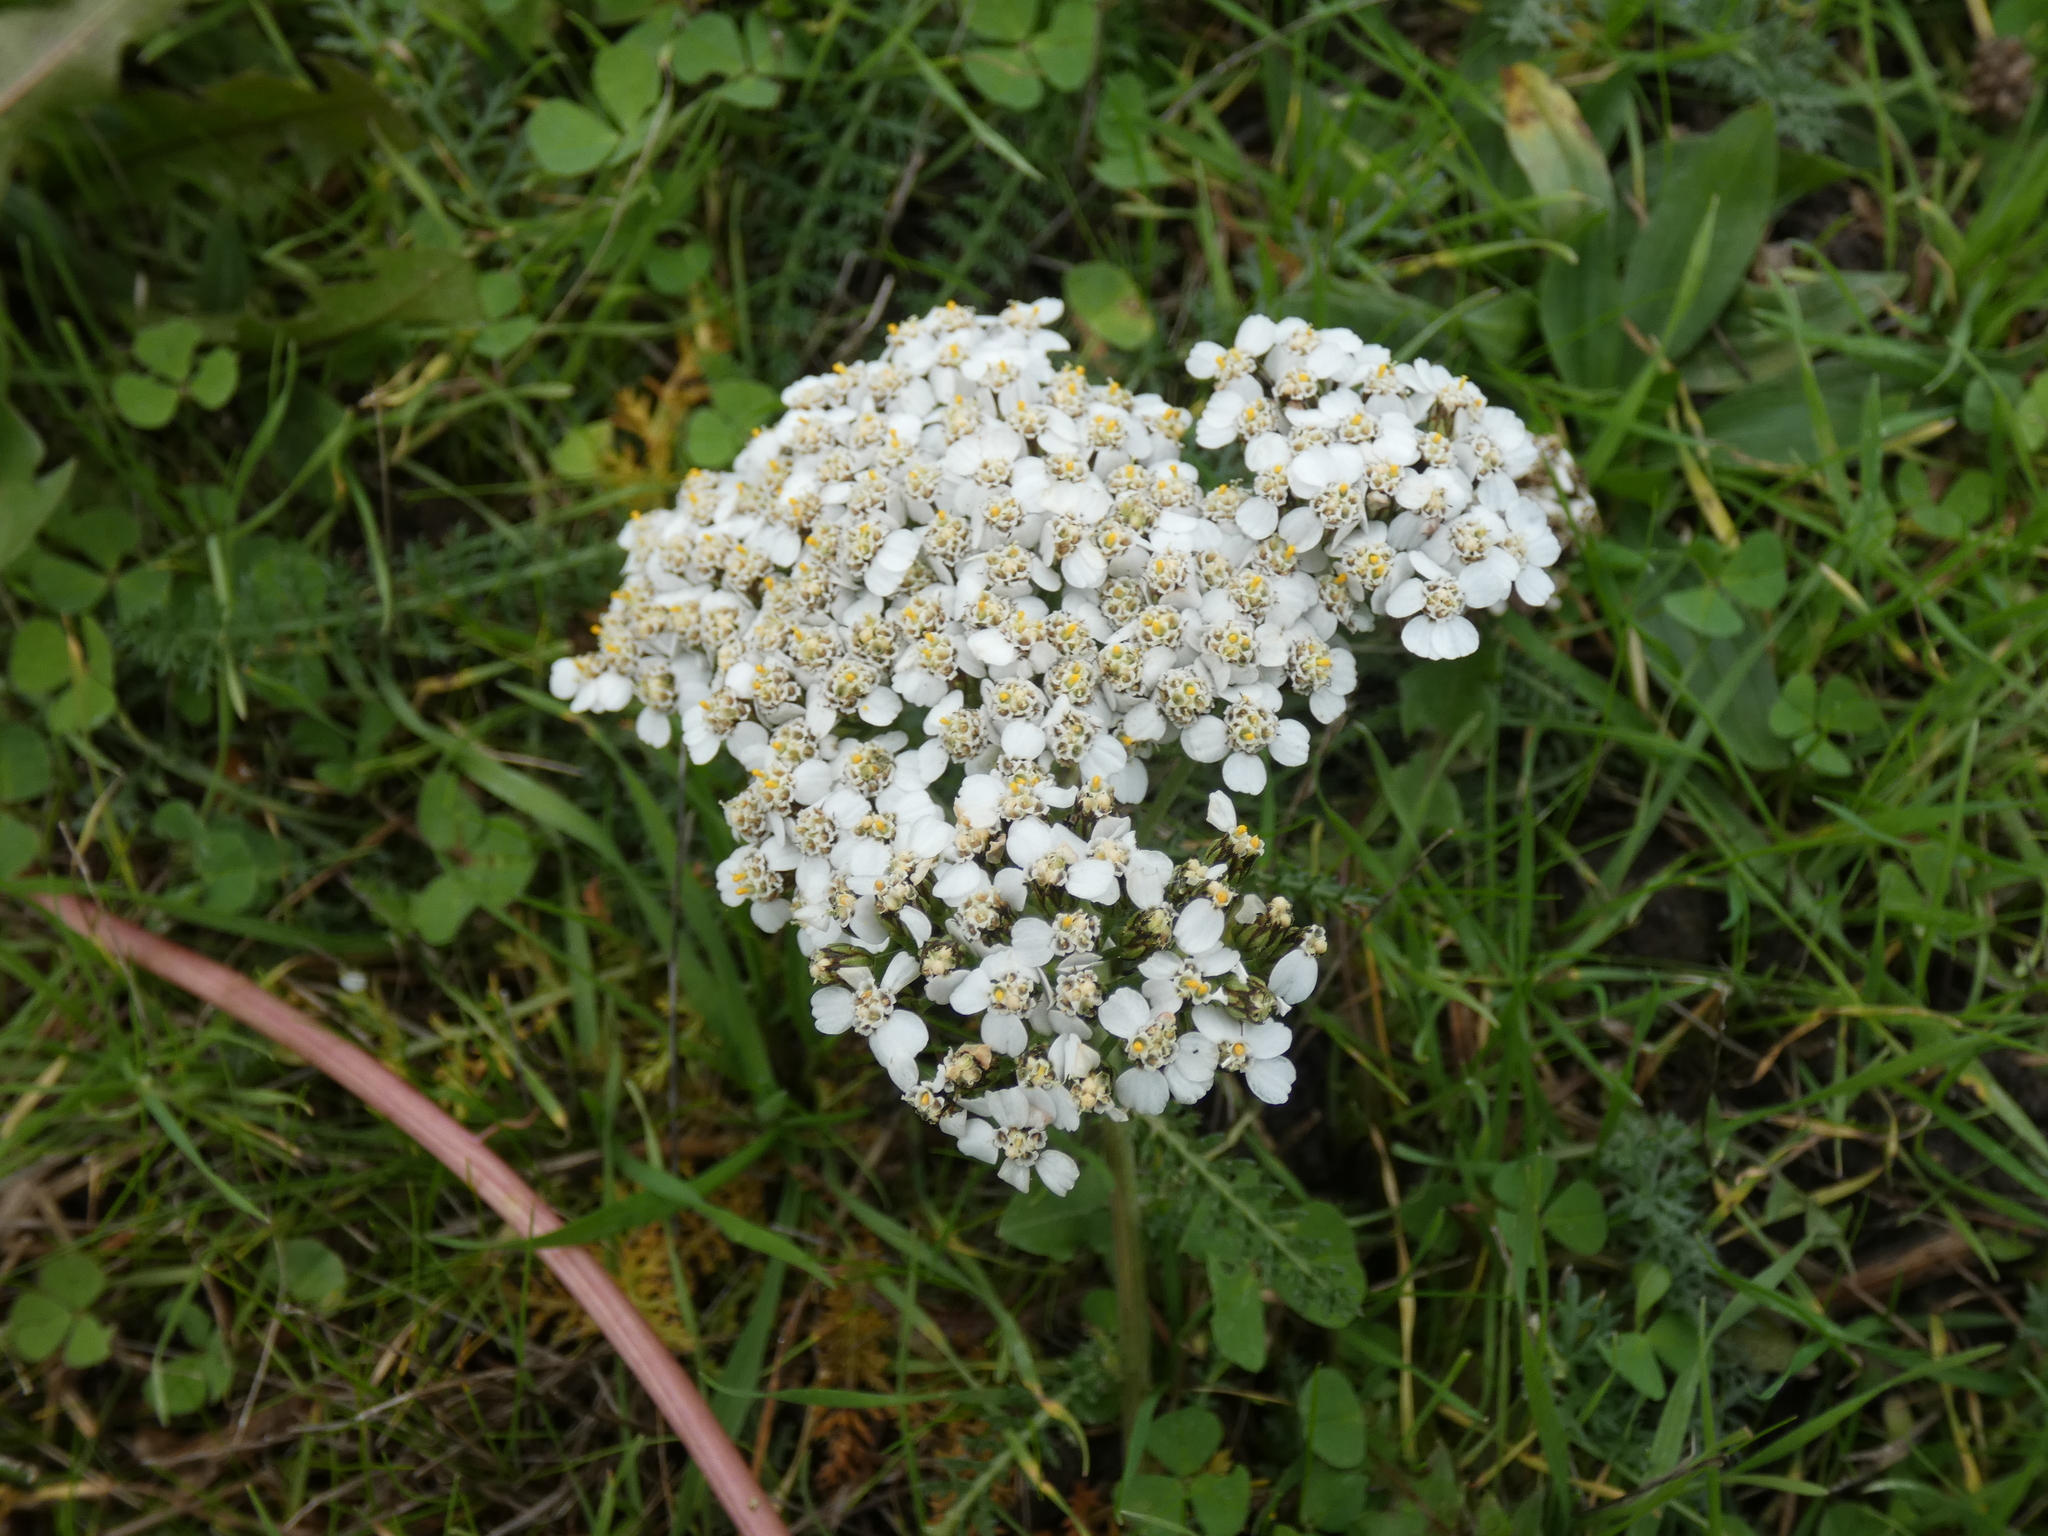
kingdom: Plantae
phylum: Tracheophyta
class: Magnoliopsida
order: Asterales
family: Asteraceae
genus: Achillea
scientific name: Achillea millefolium
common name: Yarrow
